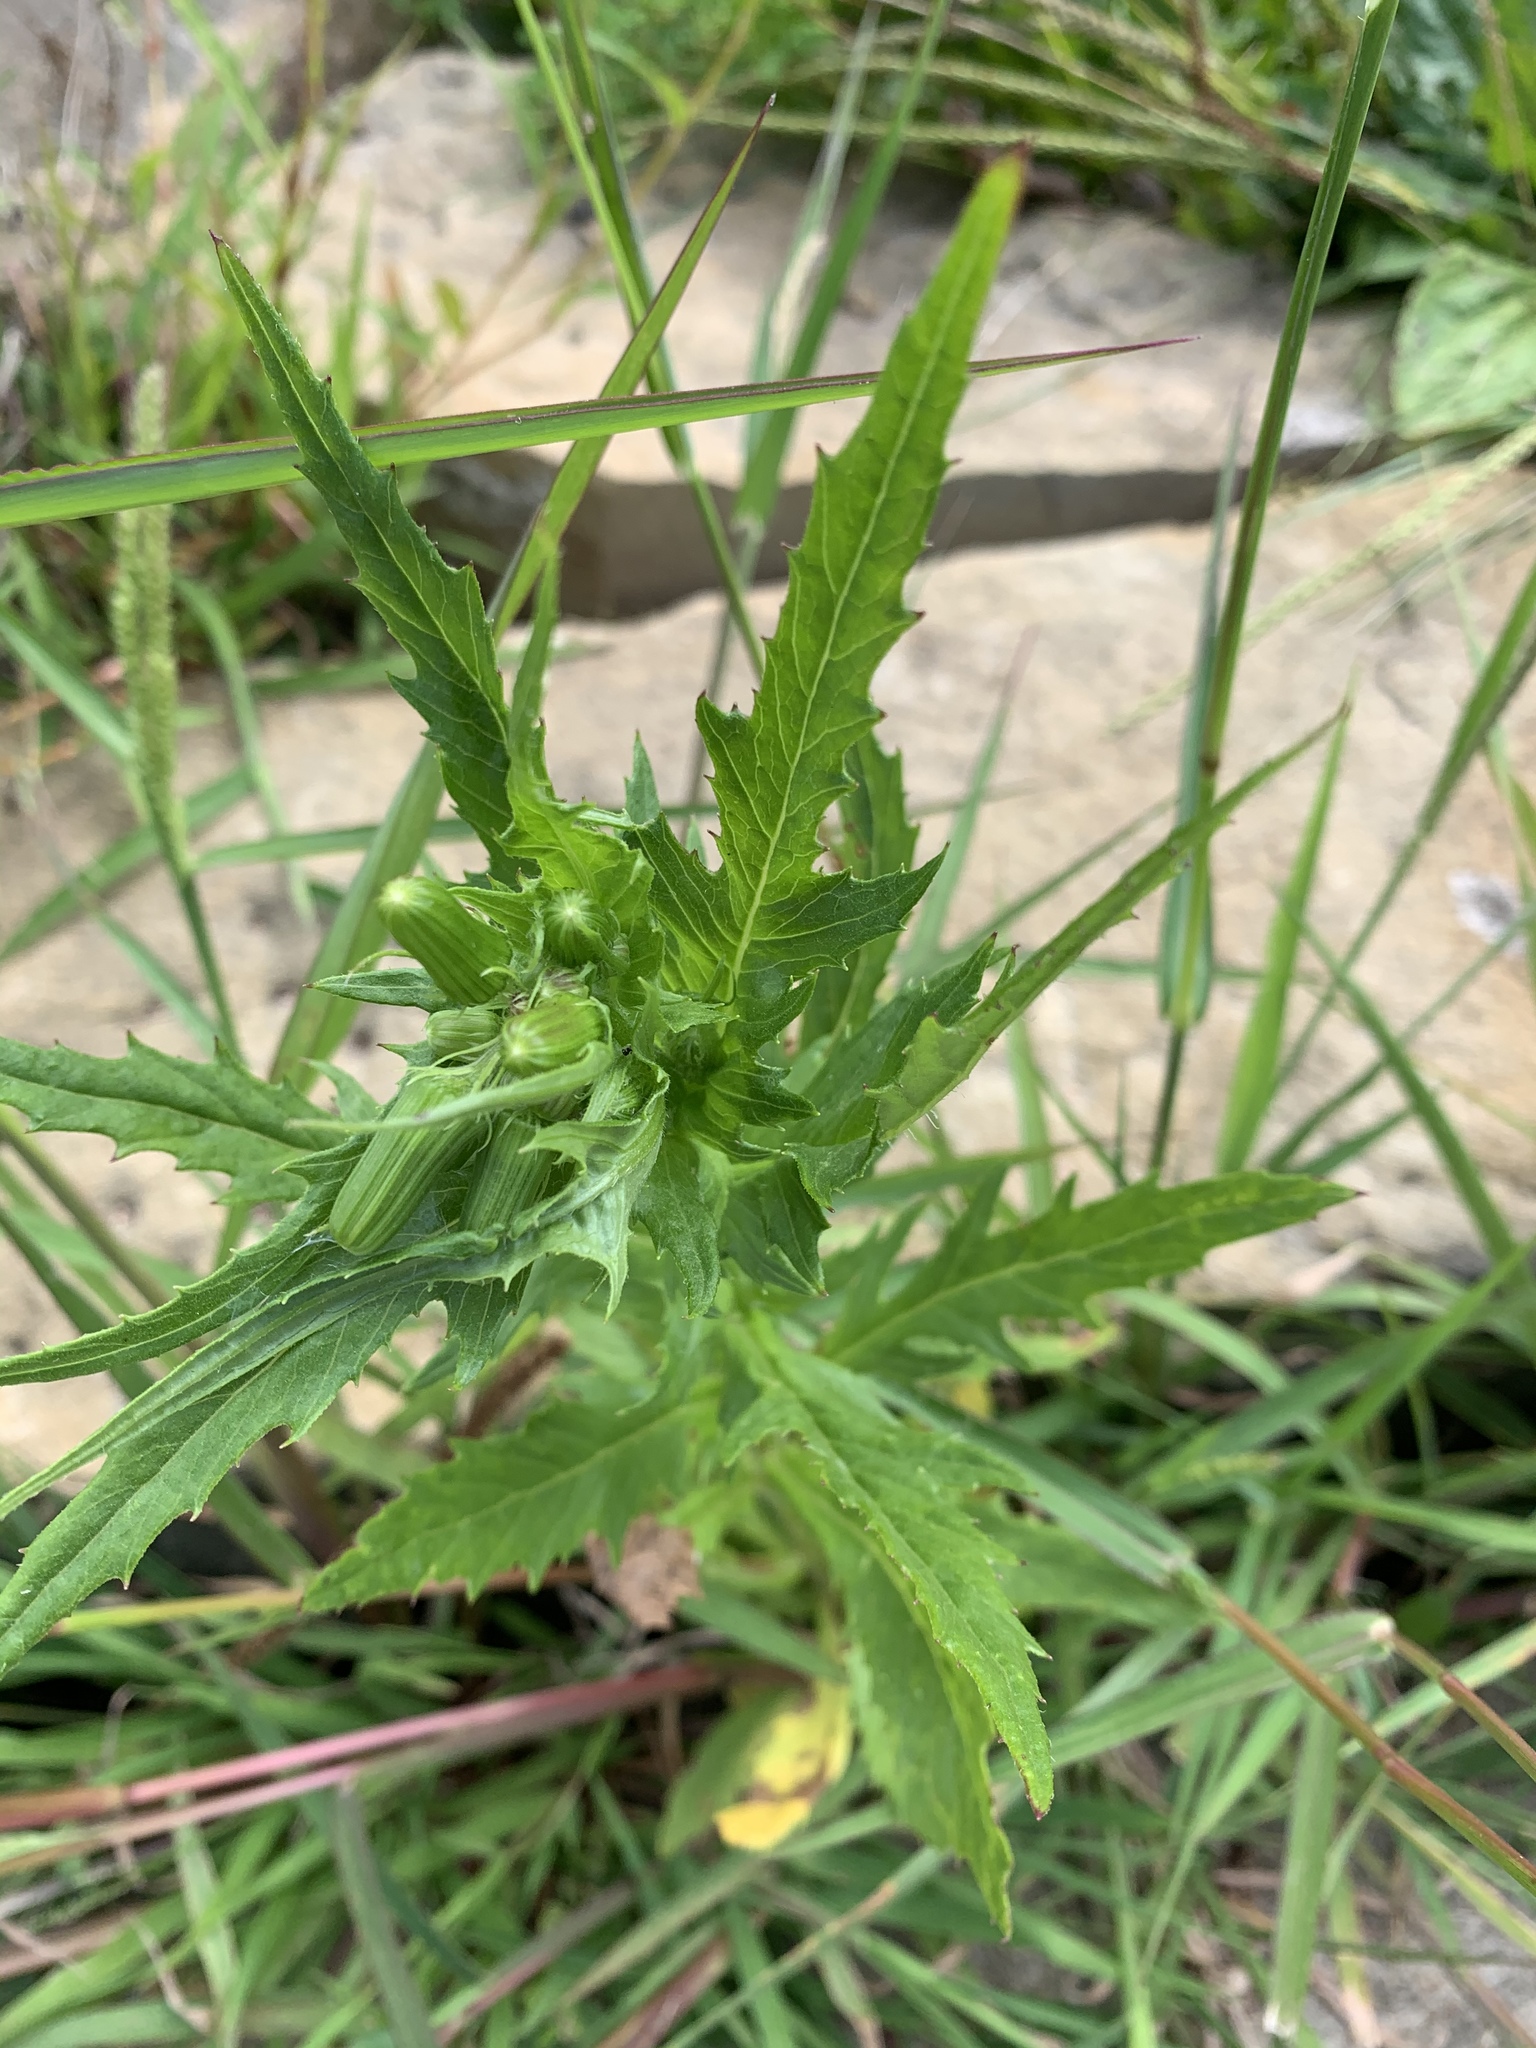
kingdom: Plantae
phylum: Tracheophyta
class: Magnoliopsida
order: Asterales
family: Asteraceae
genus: Erechtites
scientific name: Erechtites hieraciifolius
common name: American burnweed
